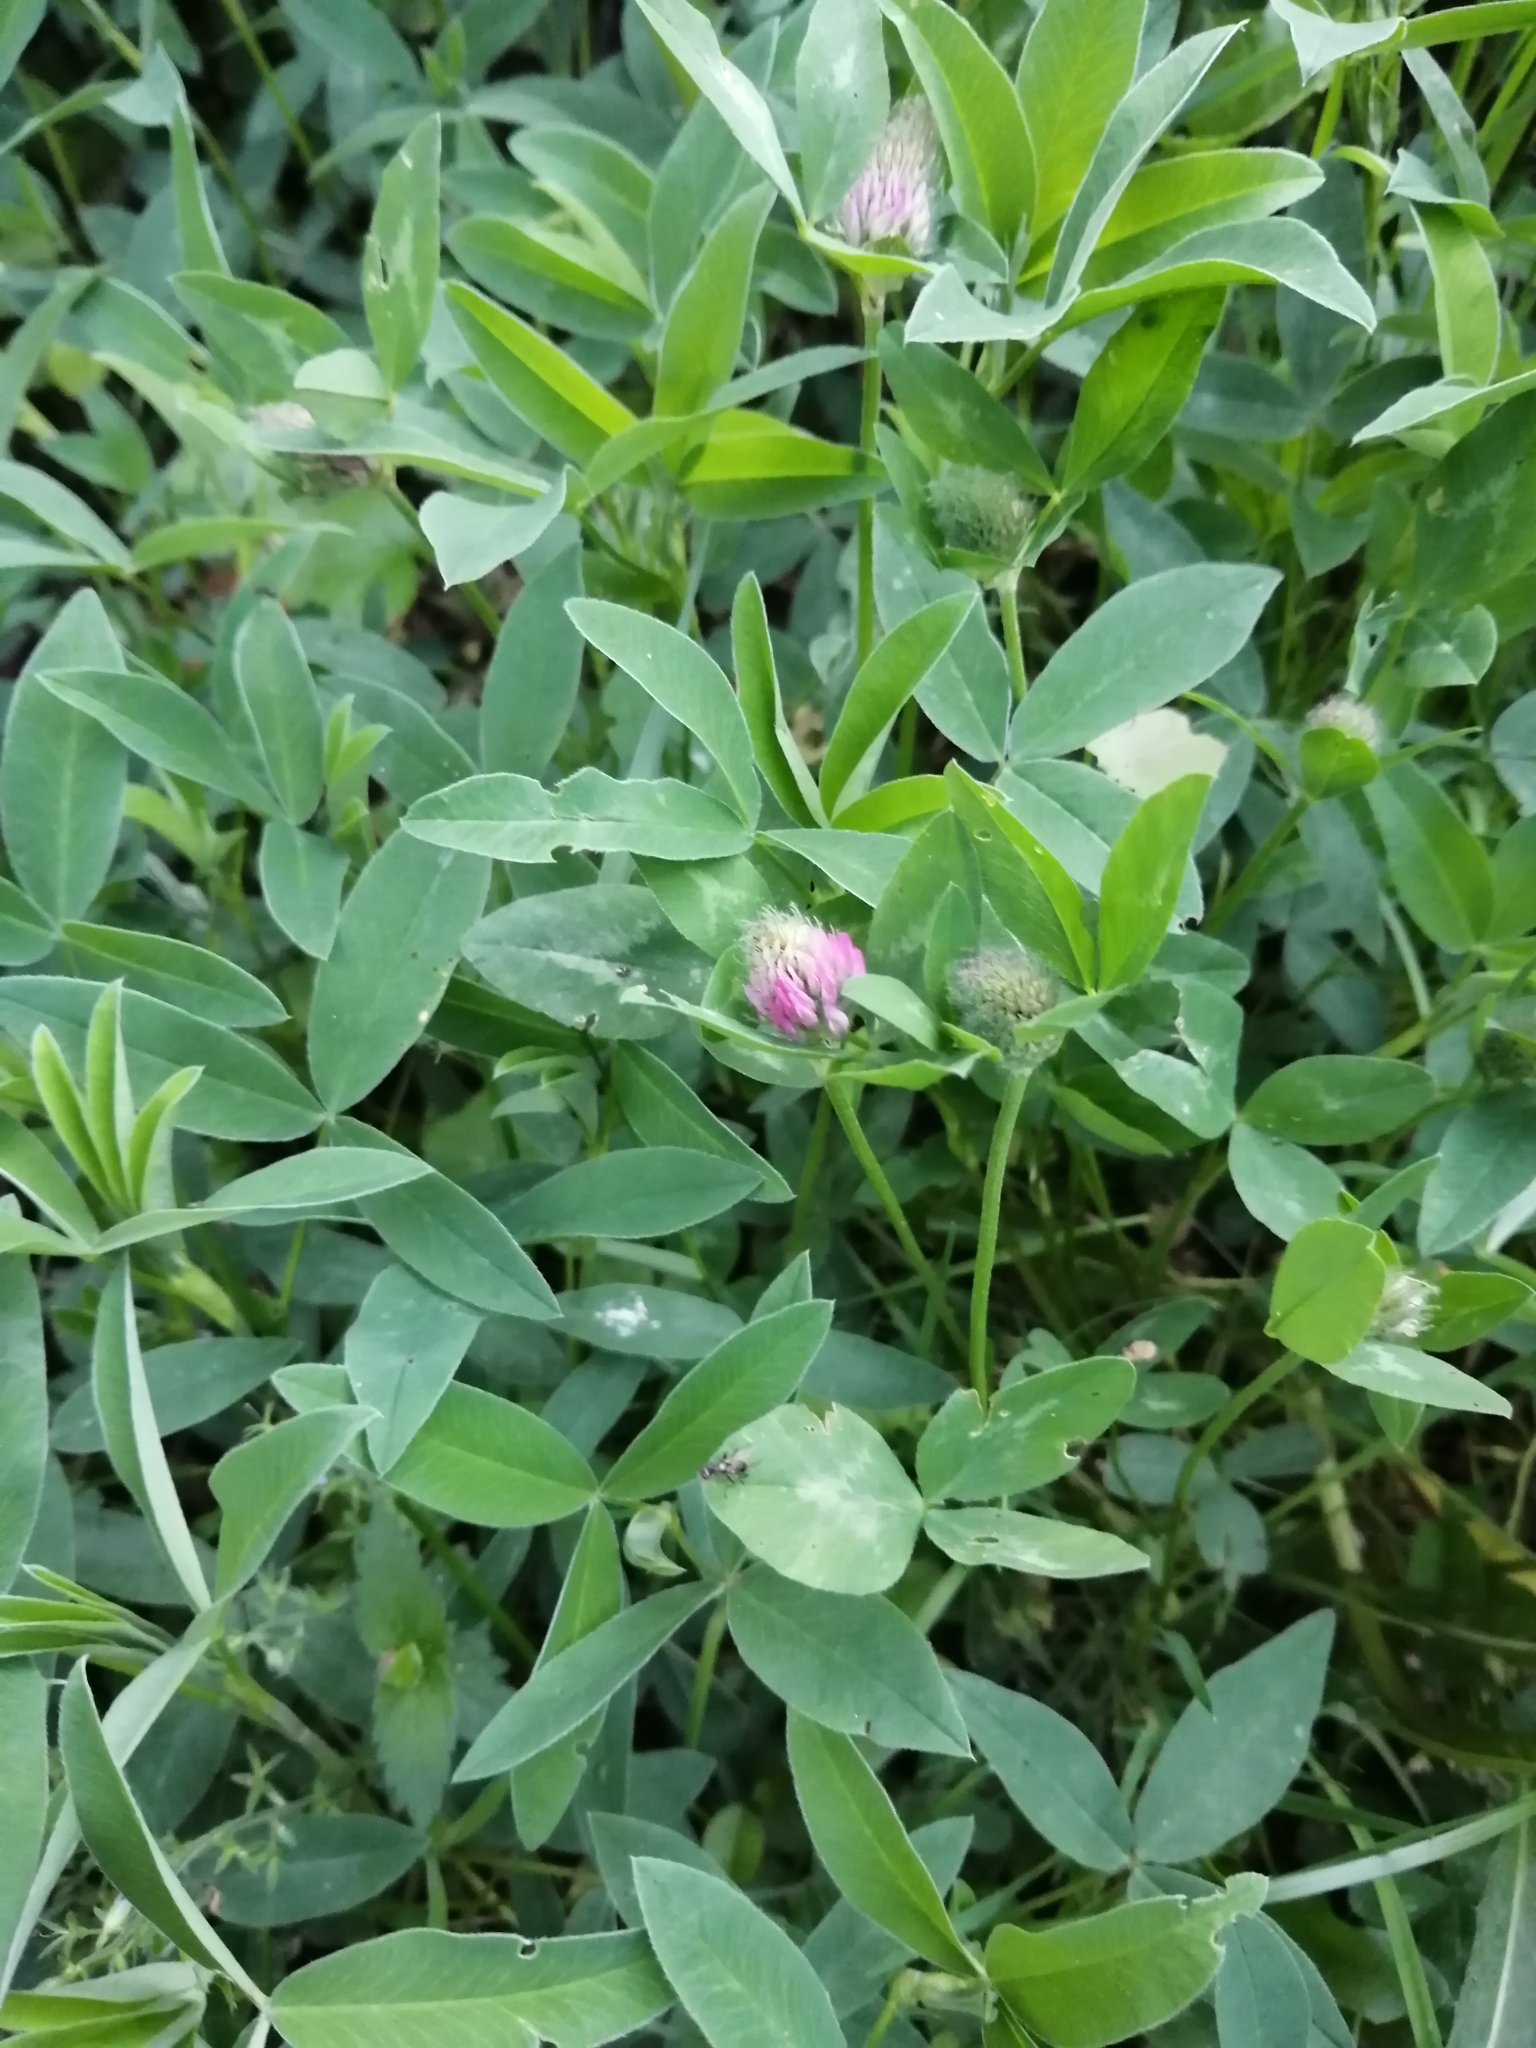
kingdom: Plantae
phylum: Tracheophyta
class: Magnoliopsida
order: Fabales
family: Fabaceae
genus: Trifolium
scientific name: Trifolium pratense
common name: Red clover
